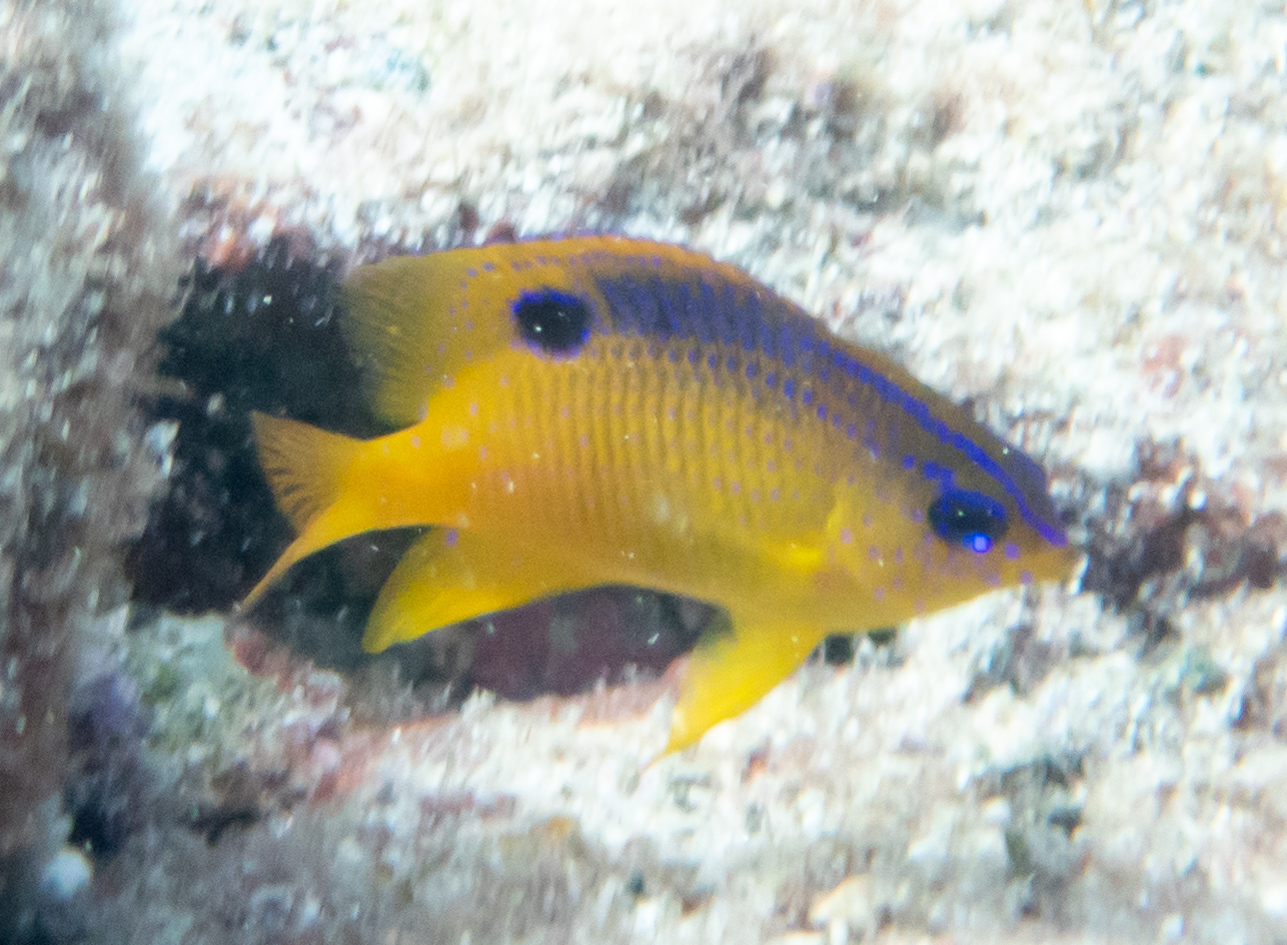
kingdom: Animalia
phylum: Chordata
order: Perciformes
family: Pomacentridae
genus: Stegastes
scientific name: Stegastes diencaeus
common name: Longfin damselfish
